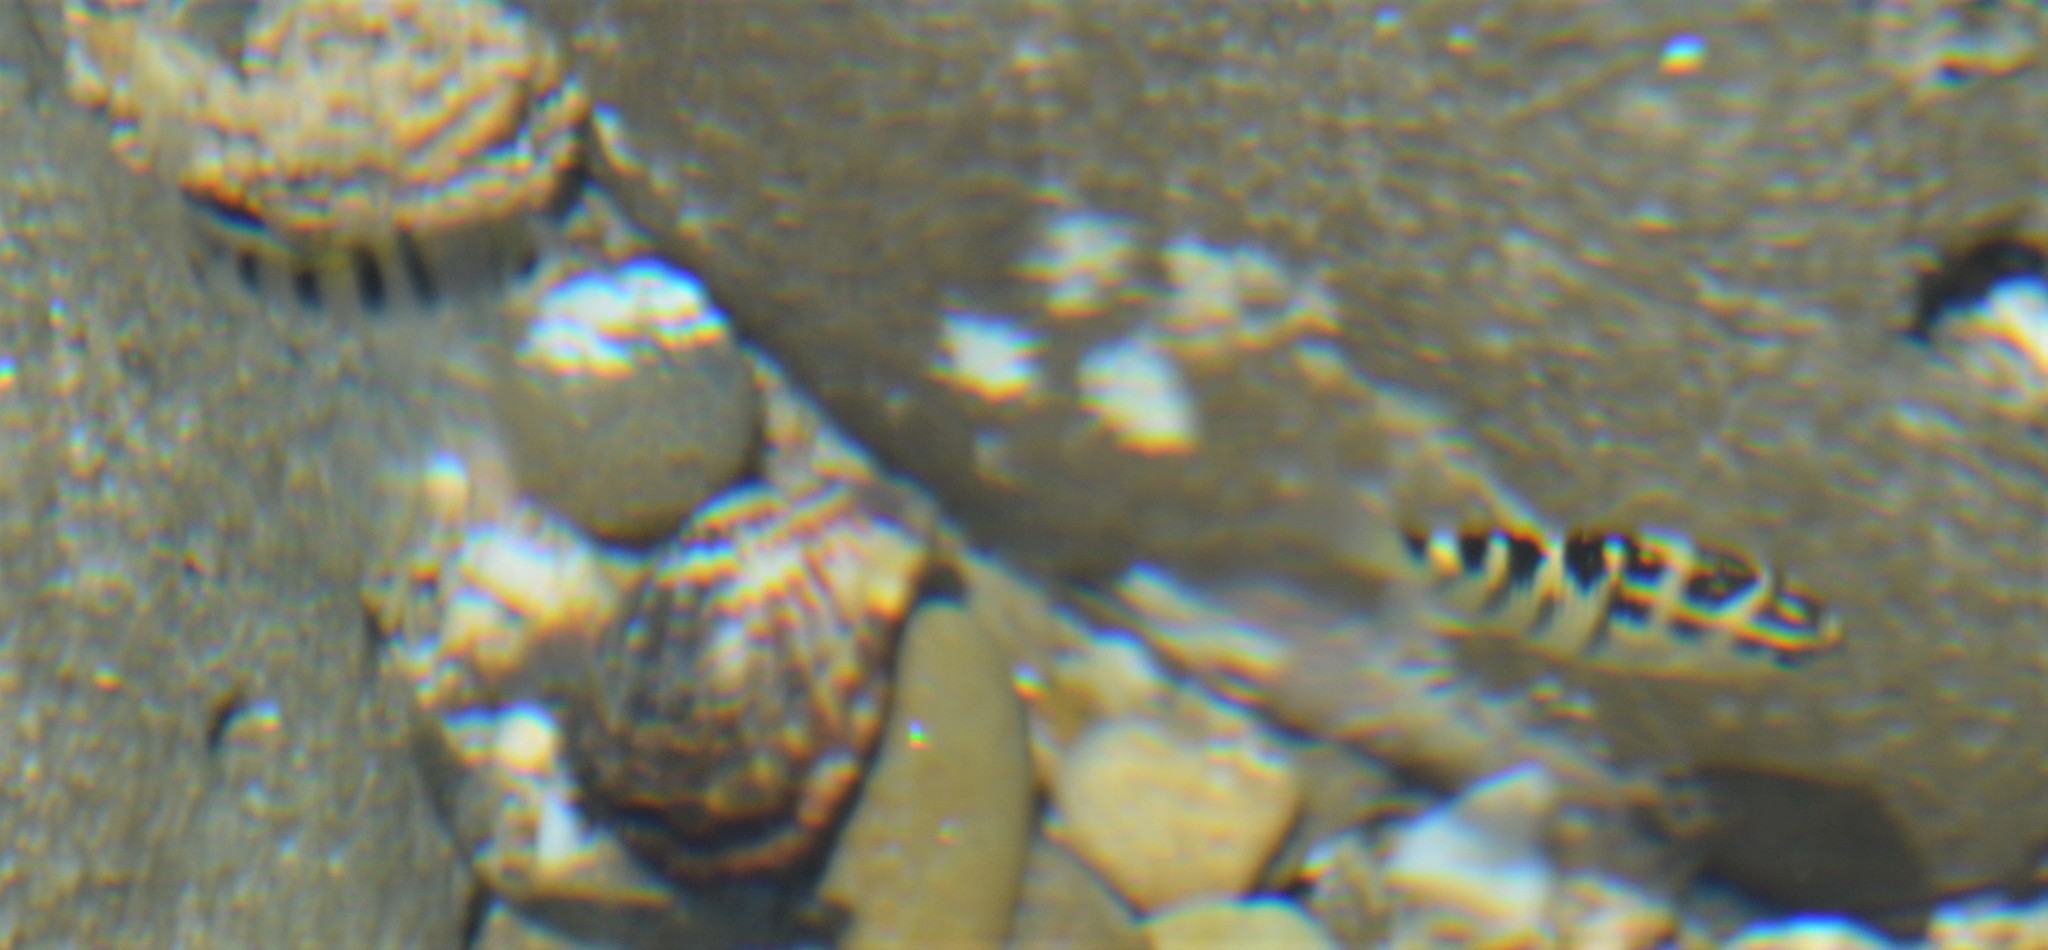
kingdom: Animalia
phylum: Chordata
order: Perciformes
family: Pomacentridae
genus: Abudefduf
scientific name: Abudefduf troschelii
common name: Panamic sergeant major
